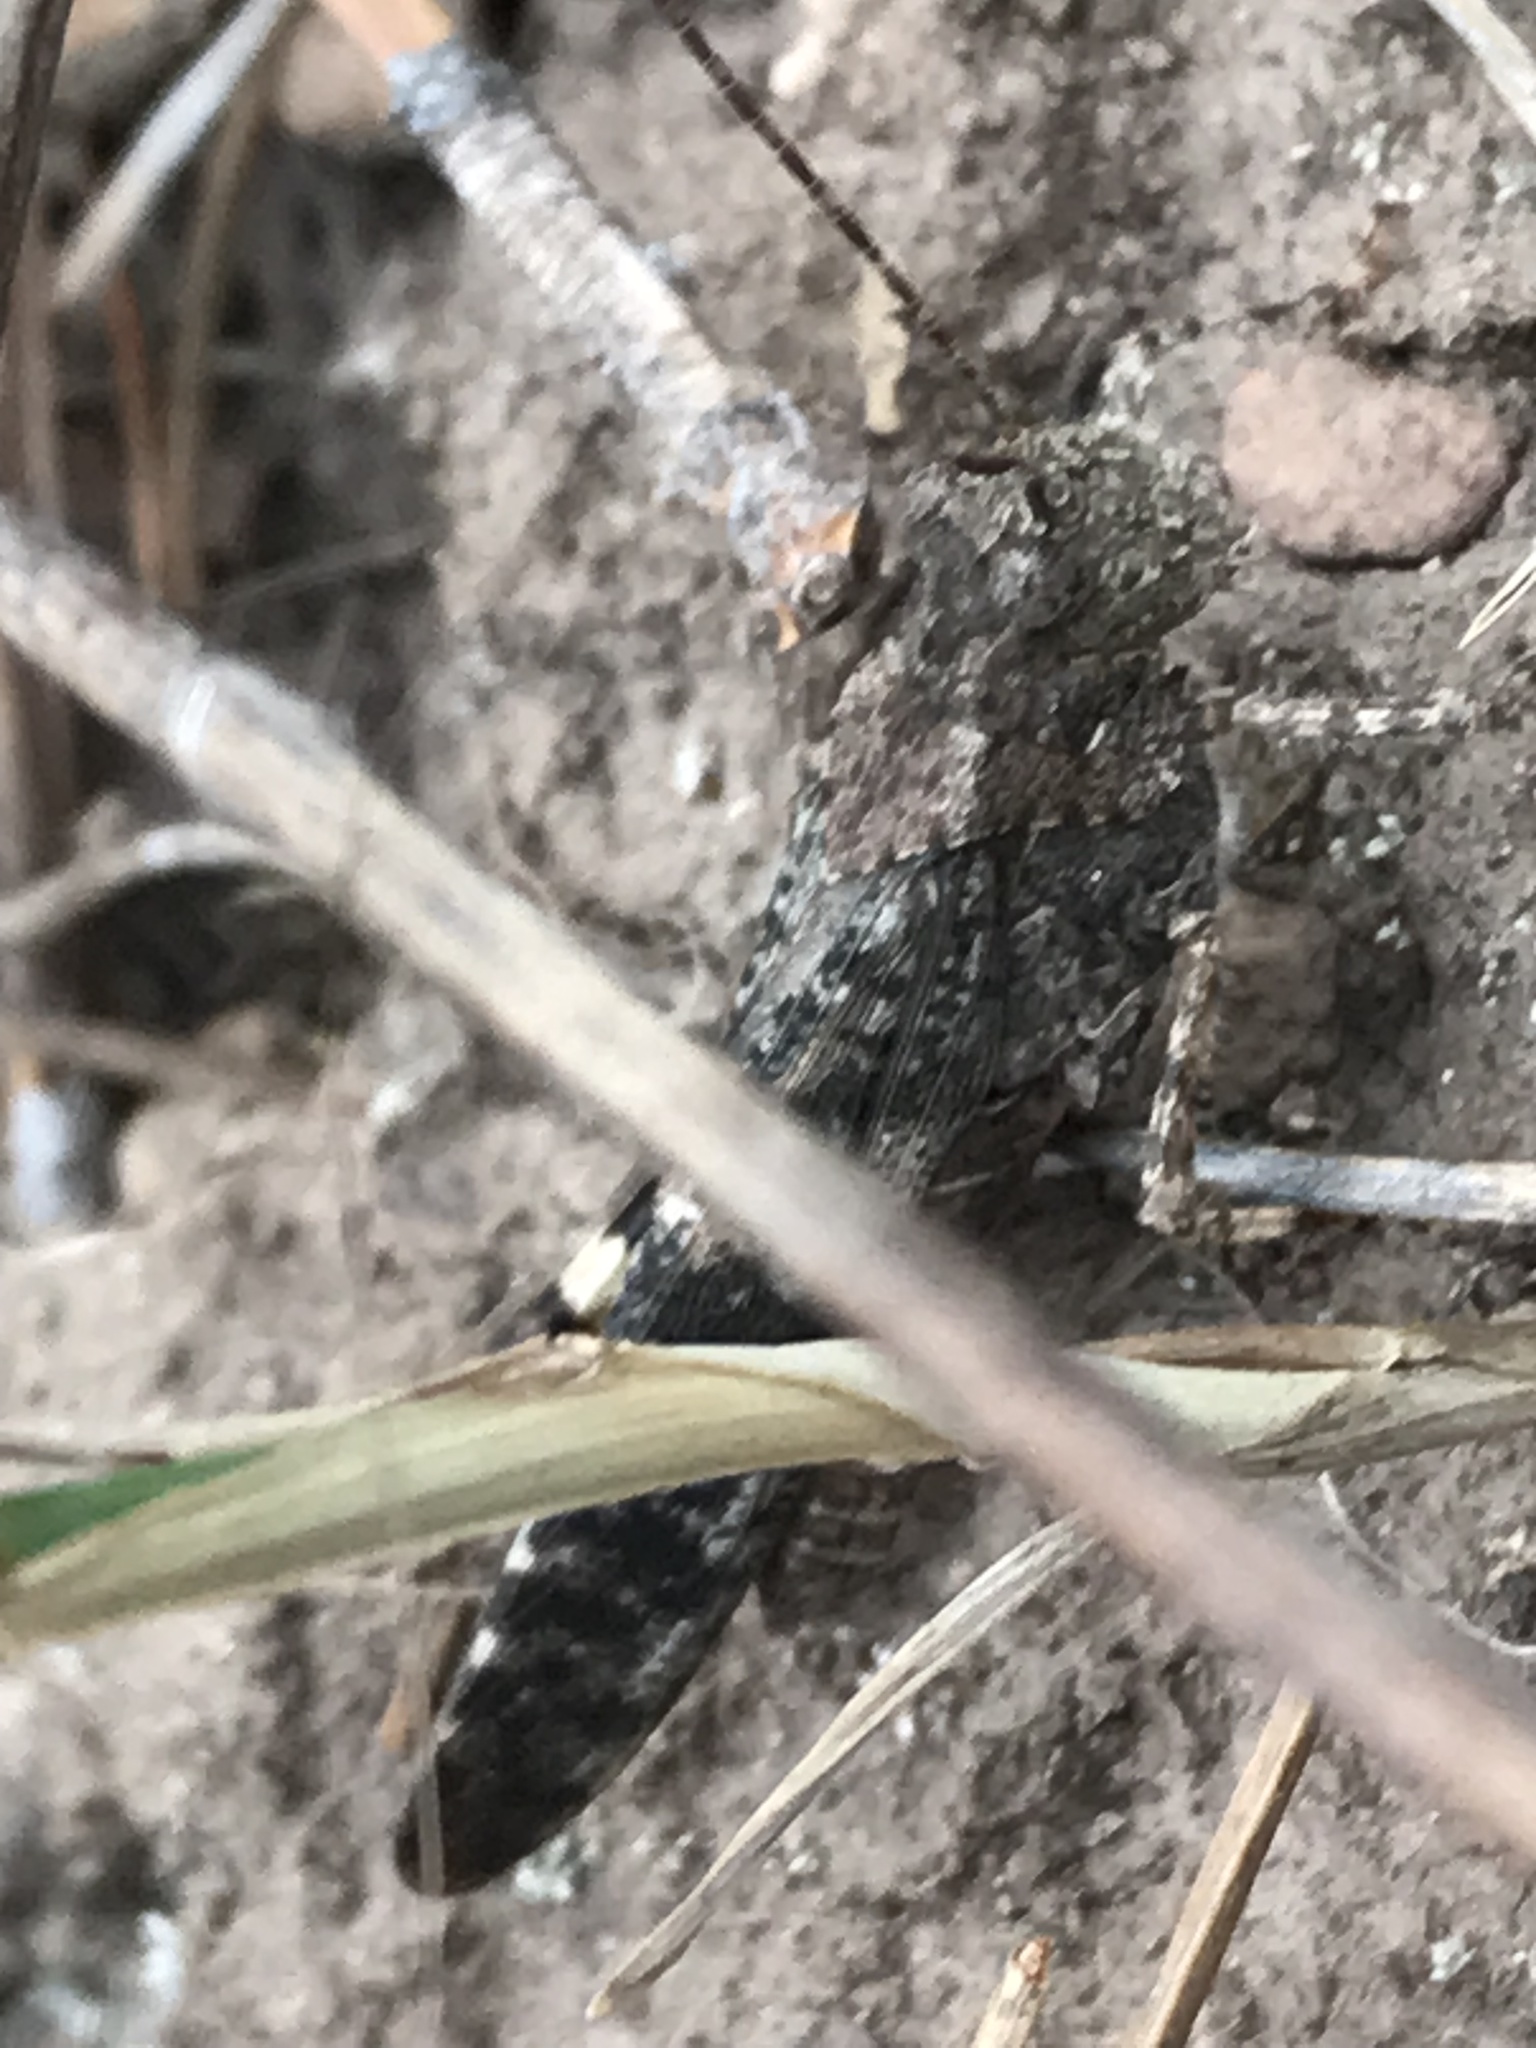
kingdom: Animalia
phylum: Arthropoda
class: Insecta
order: Orthoptera
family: Acrididae
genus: Trimerotropis
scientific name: Trimerotropis verruculata
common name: Crackling forest grasshopper
